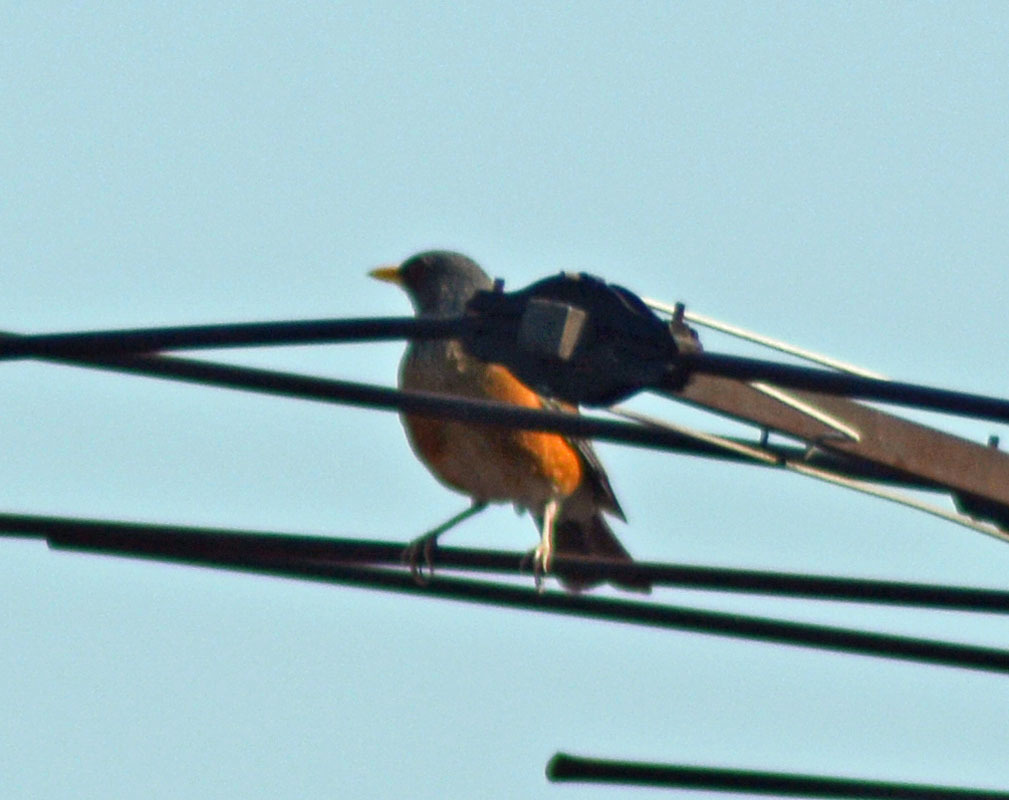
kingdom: Animalia
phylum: Chordata
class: Aves
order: Passeriformes
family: Turdidae
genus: Turdus
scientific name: Turdus rufopalliatus
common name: Rufous-backed robin
